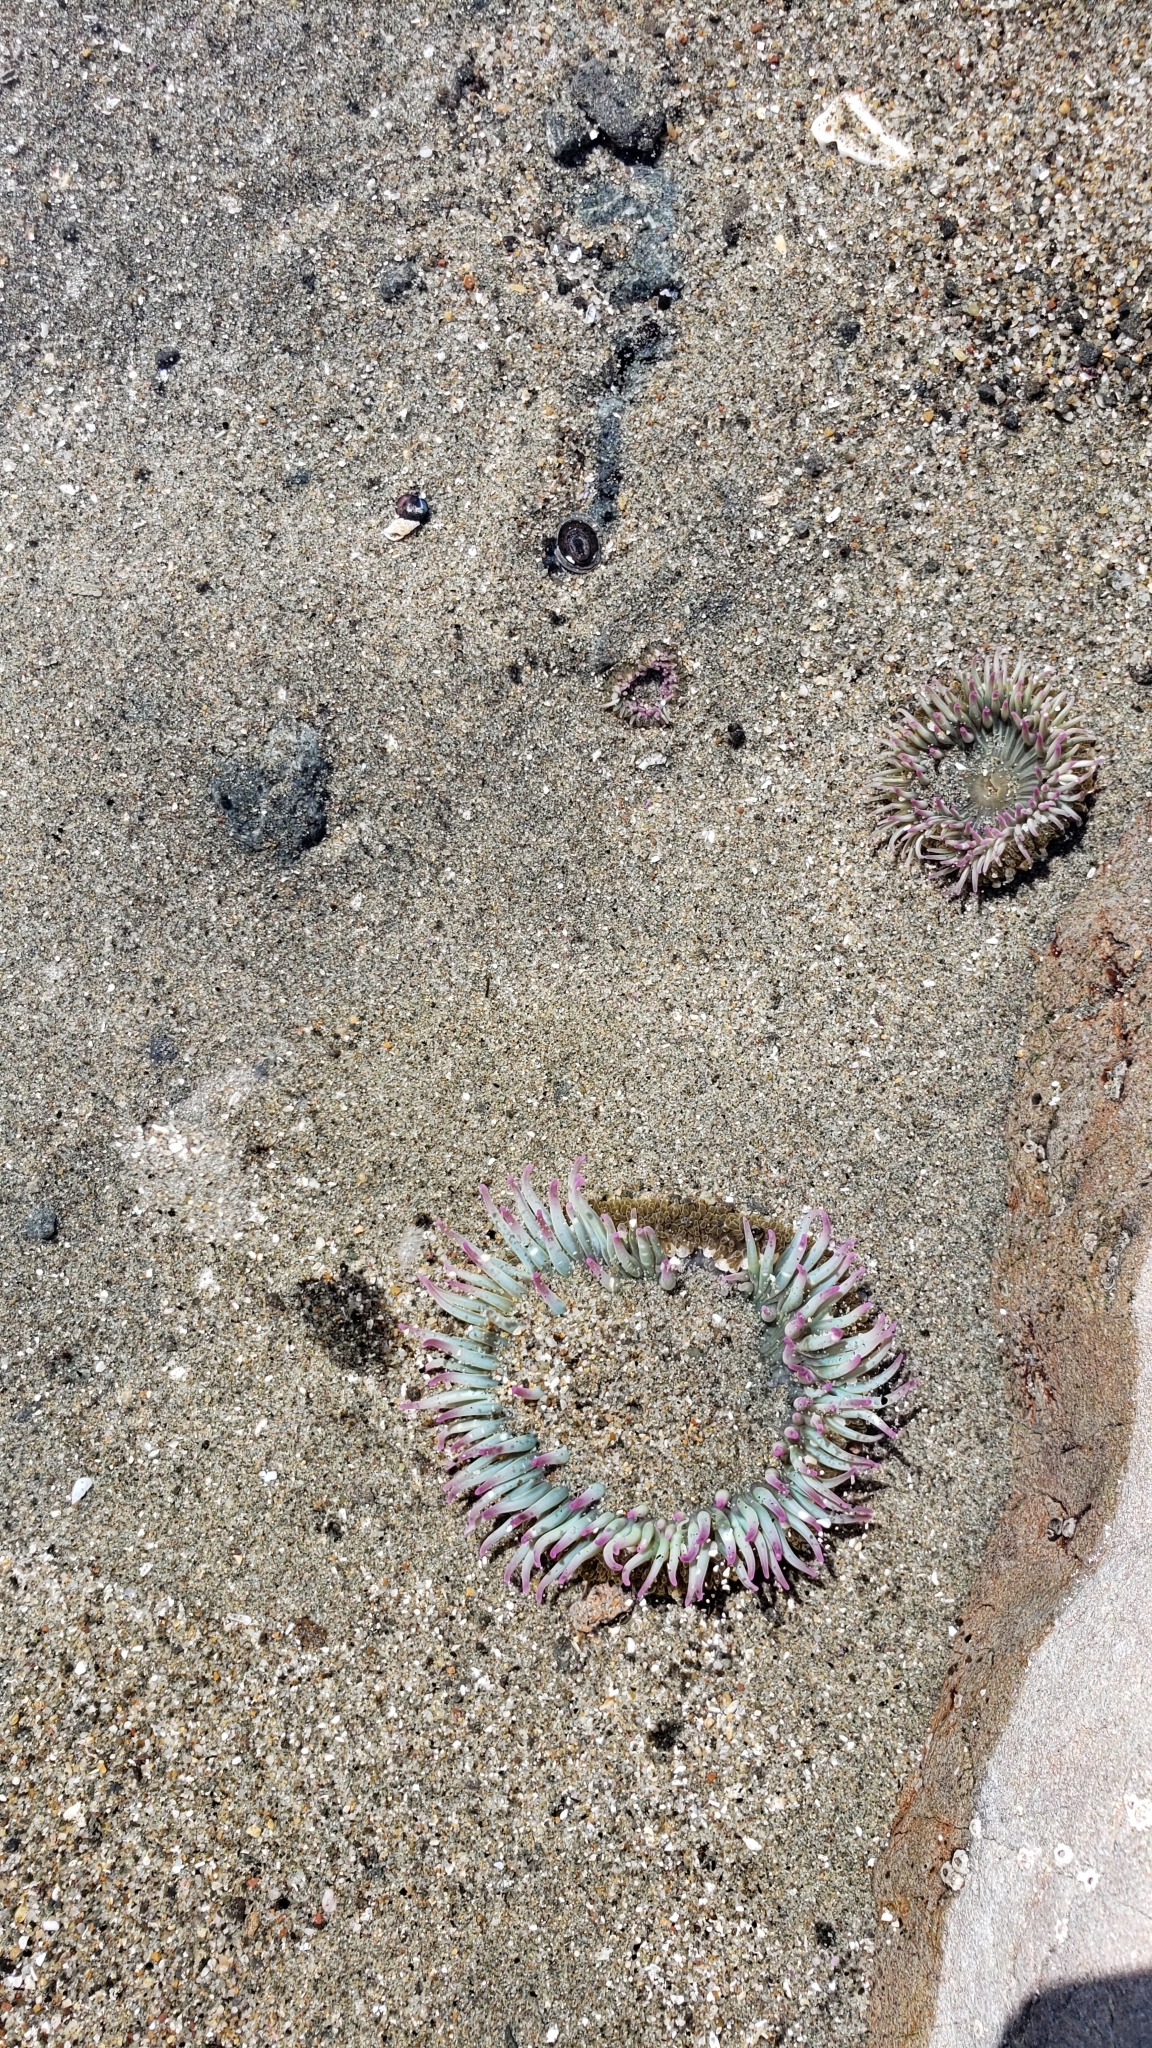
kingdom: Animalia
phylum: Cnidaria
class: Anthozoa
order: Actiniaria
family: Actiniidae
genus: Anthopleura
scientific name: Anthopleura elegantissima
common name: Clonal anemone
